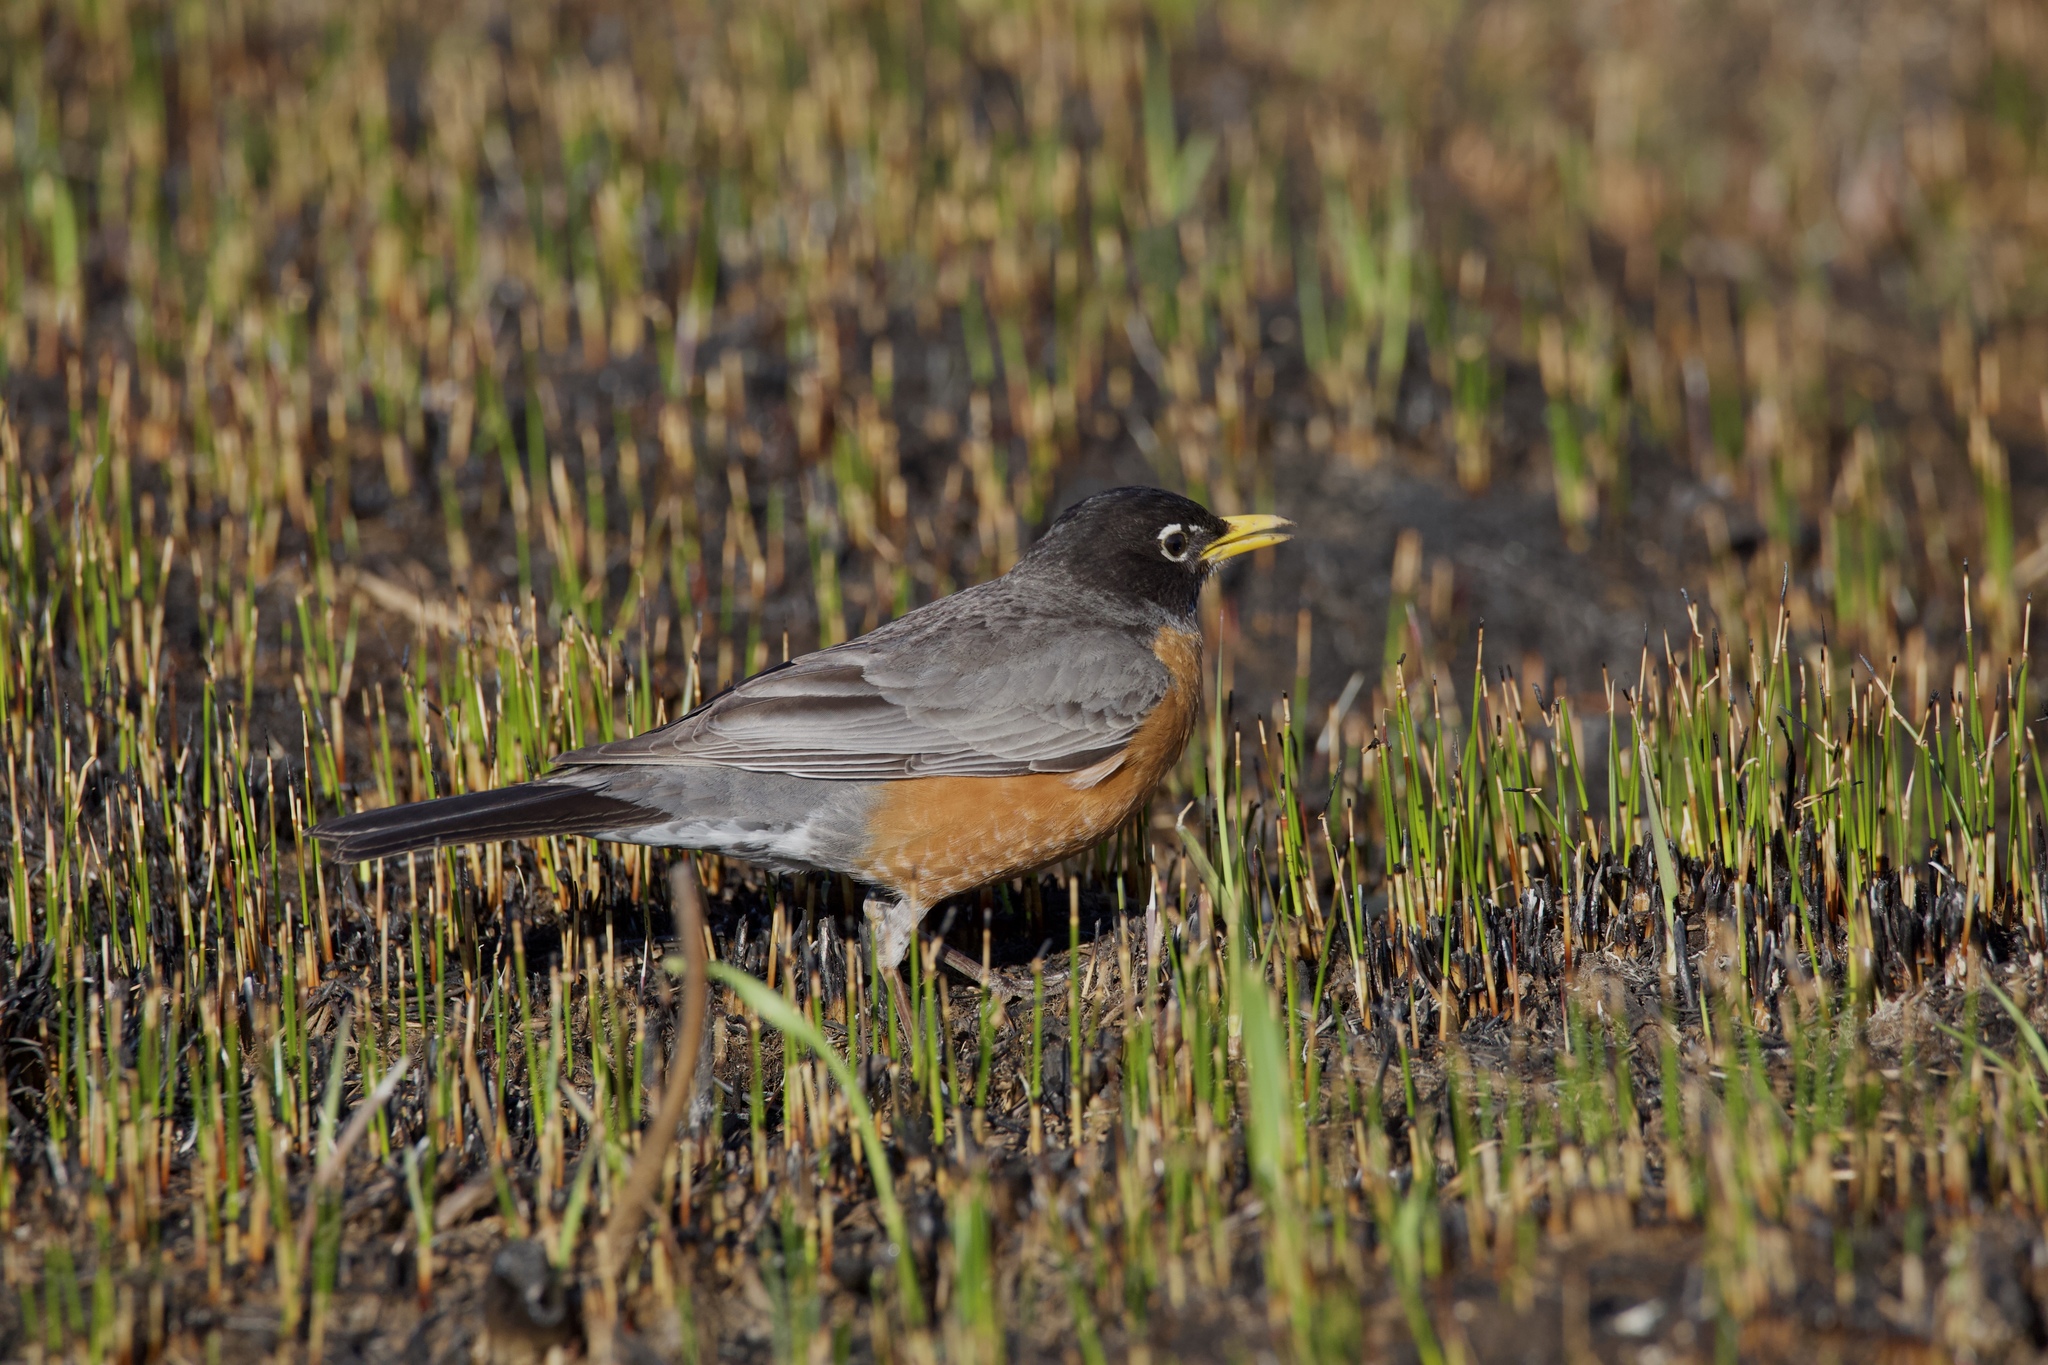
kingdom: Animalia
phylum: Chordata
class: Aves
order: Passeriformes
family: Turdidae
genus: Turdus
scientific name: Turdus migratorius
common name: American robin
